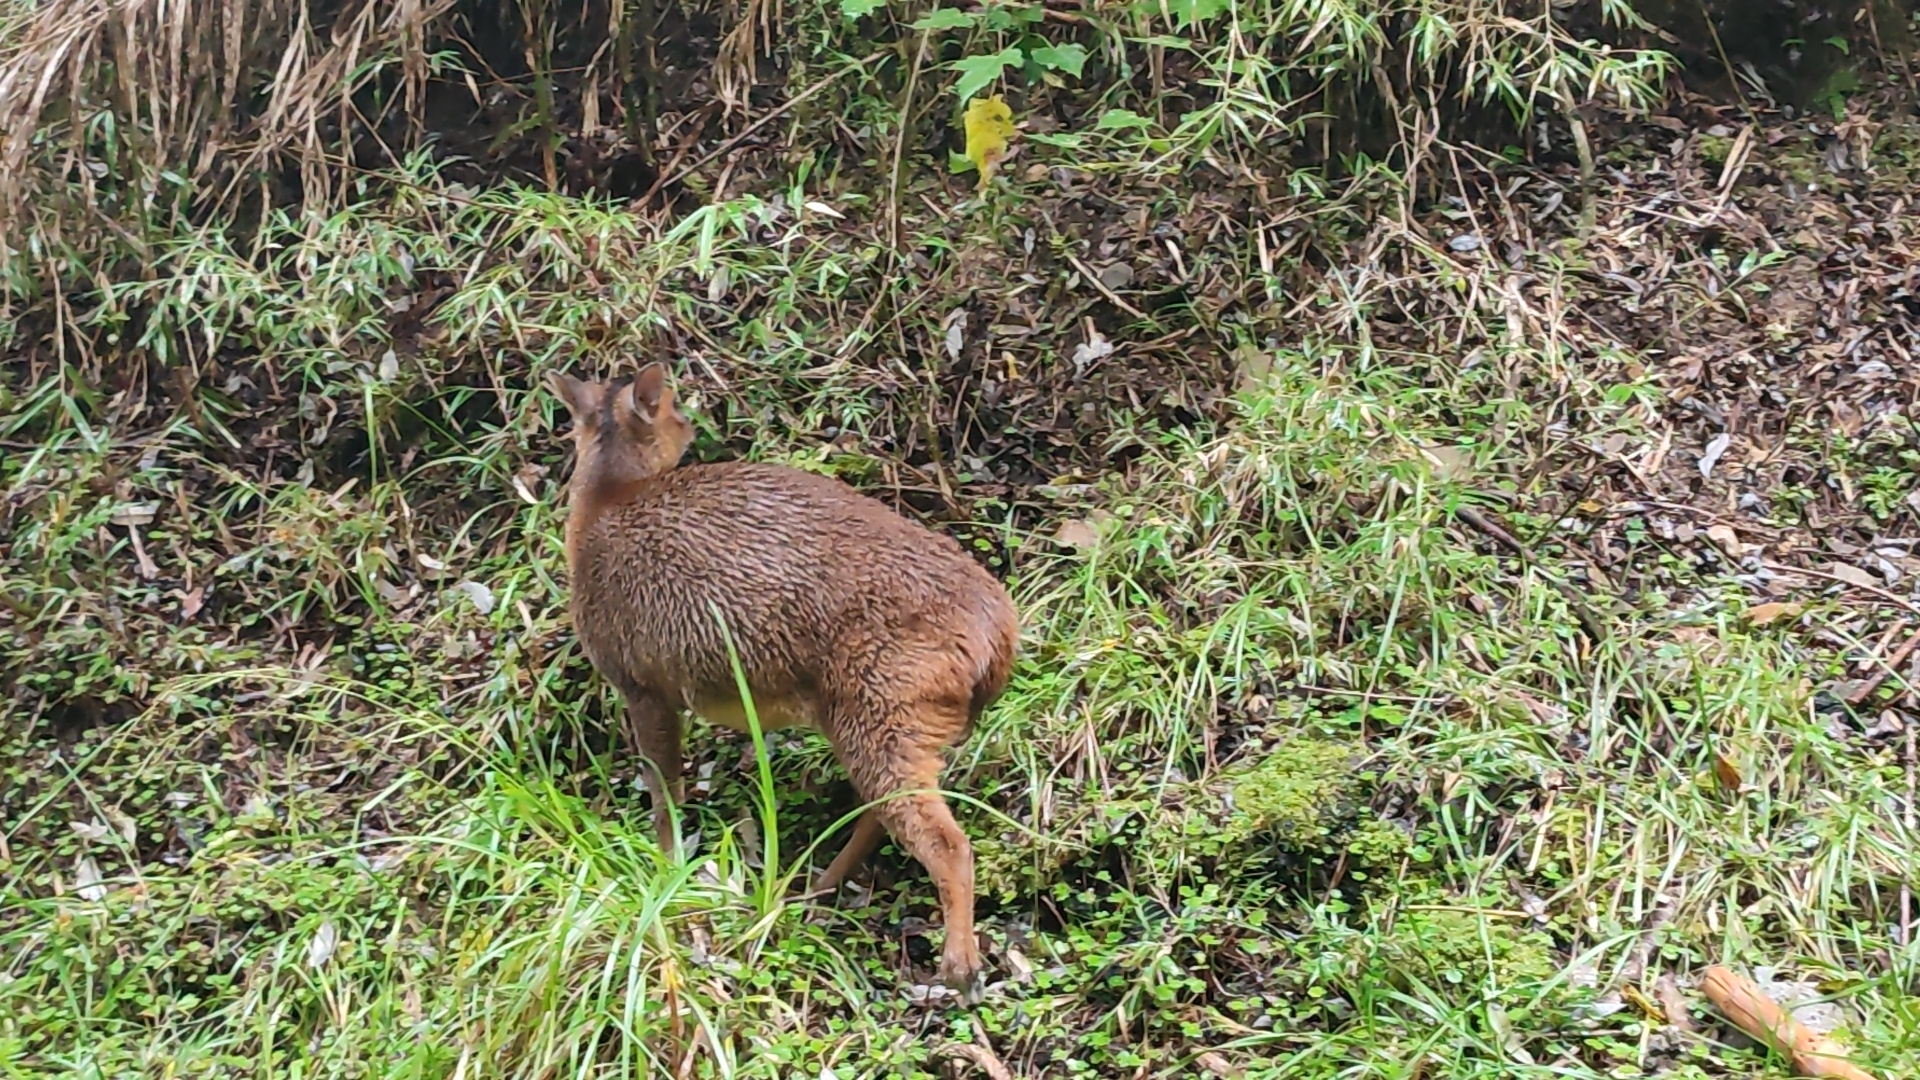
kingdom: Animalia
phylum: Chordata
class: Mammalia
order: Artiodactyla
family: Cervidae
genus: Muntiacus
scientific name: Muntiacus reevesi
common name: Reeves' muntjac
